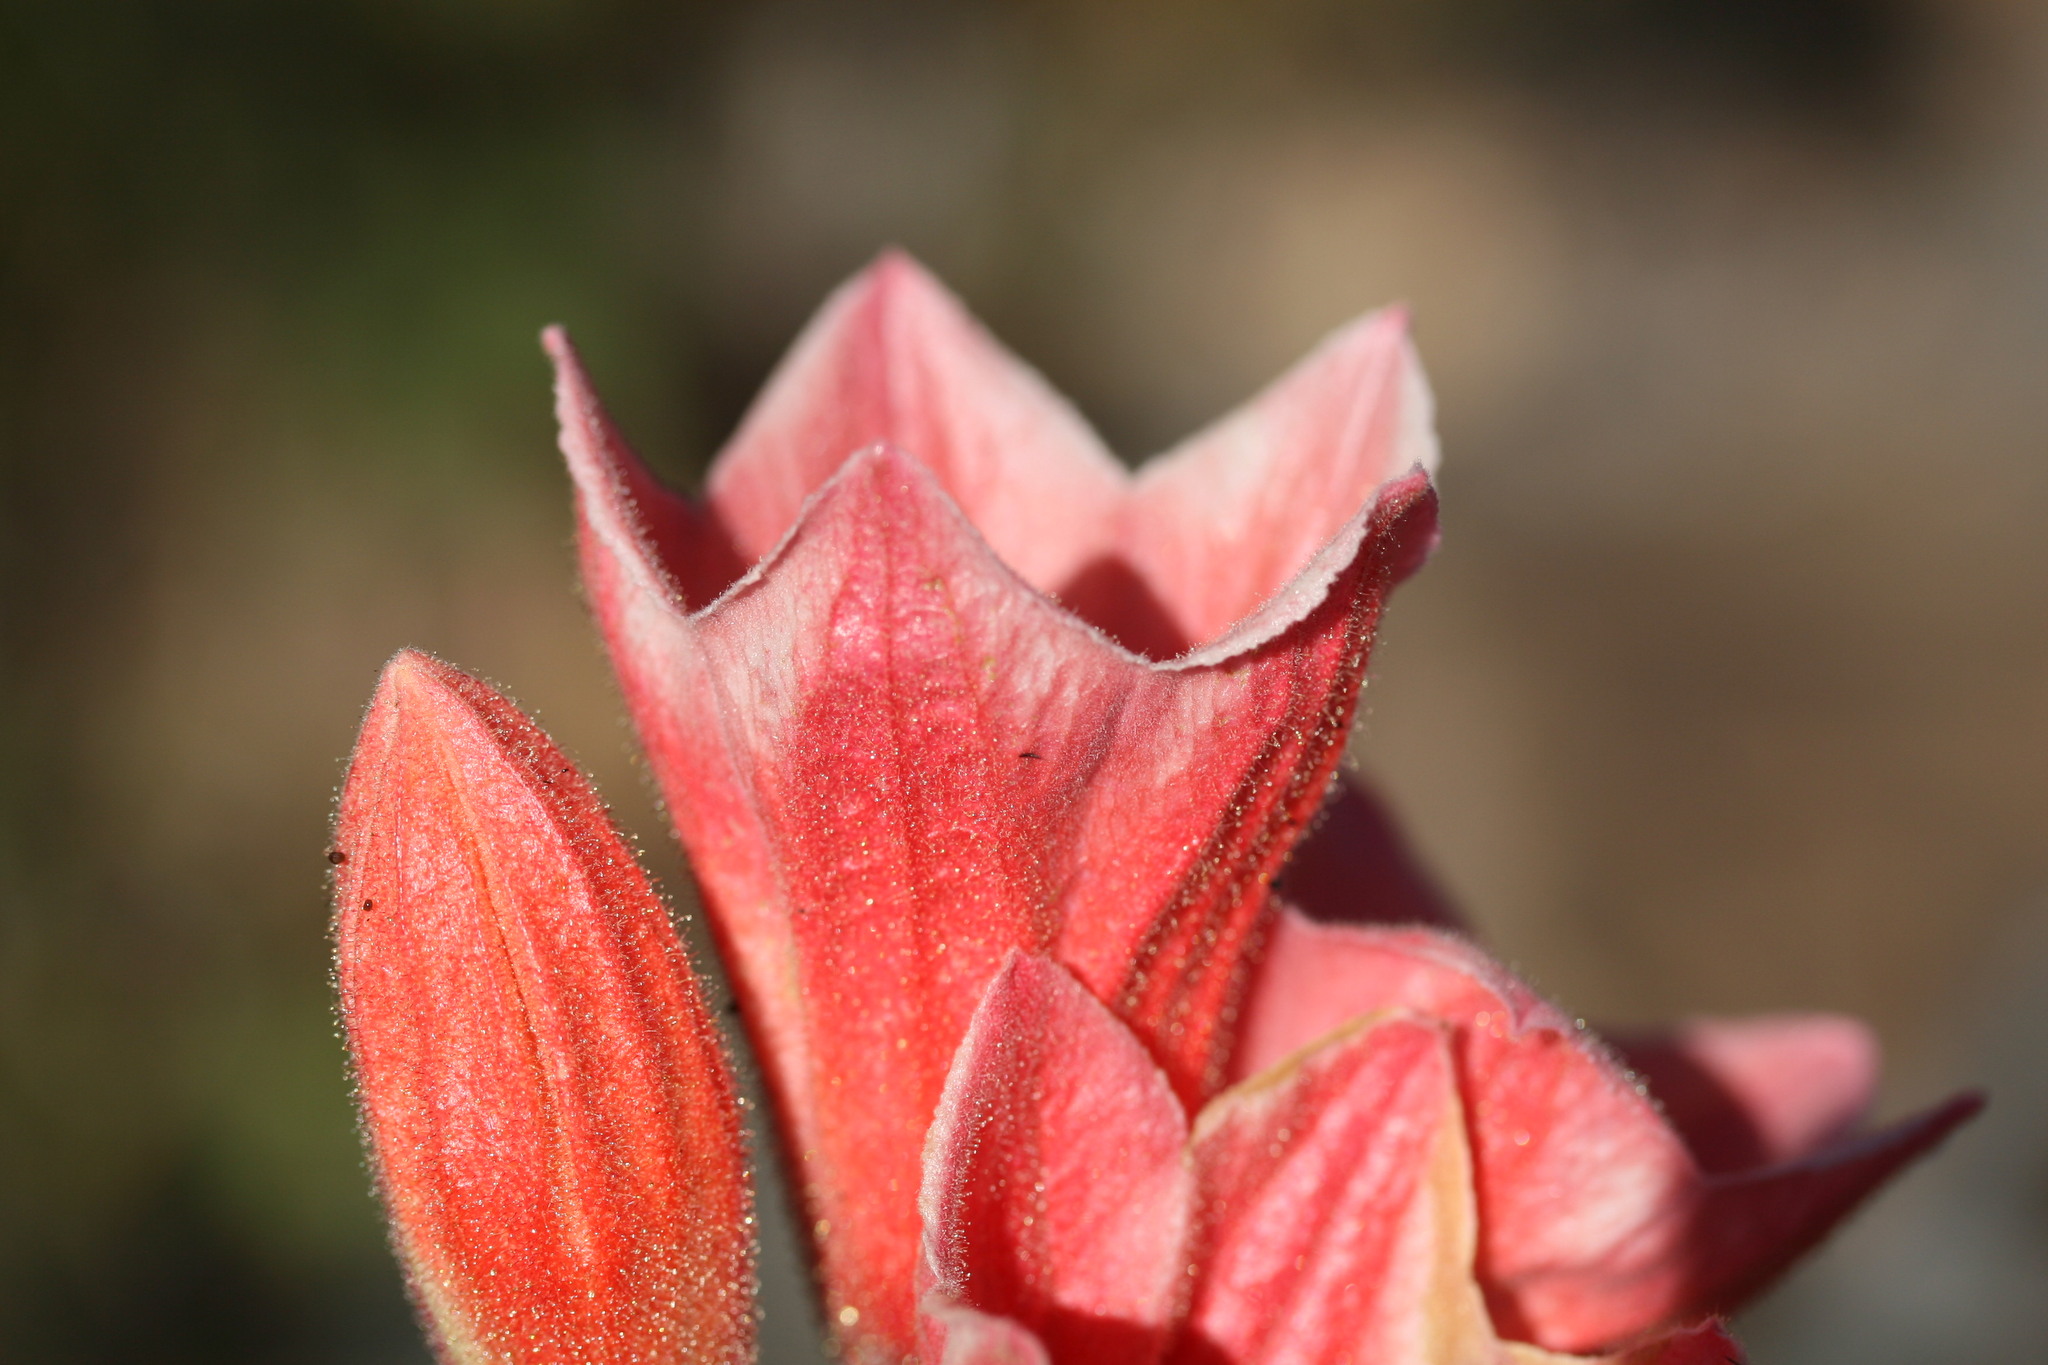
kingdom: Plantae
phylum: Tracheophyta
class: Magnoliopsida
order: Malvales
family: Malvaceae
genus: Brachychiton
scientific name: Brachychiton viscidulus
